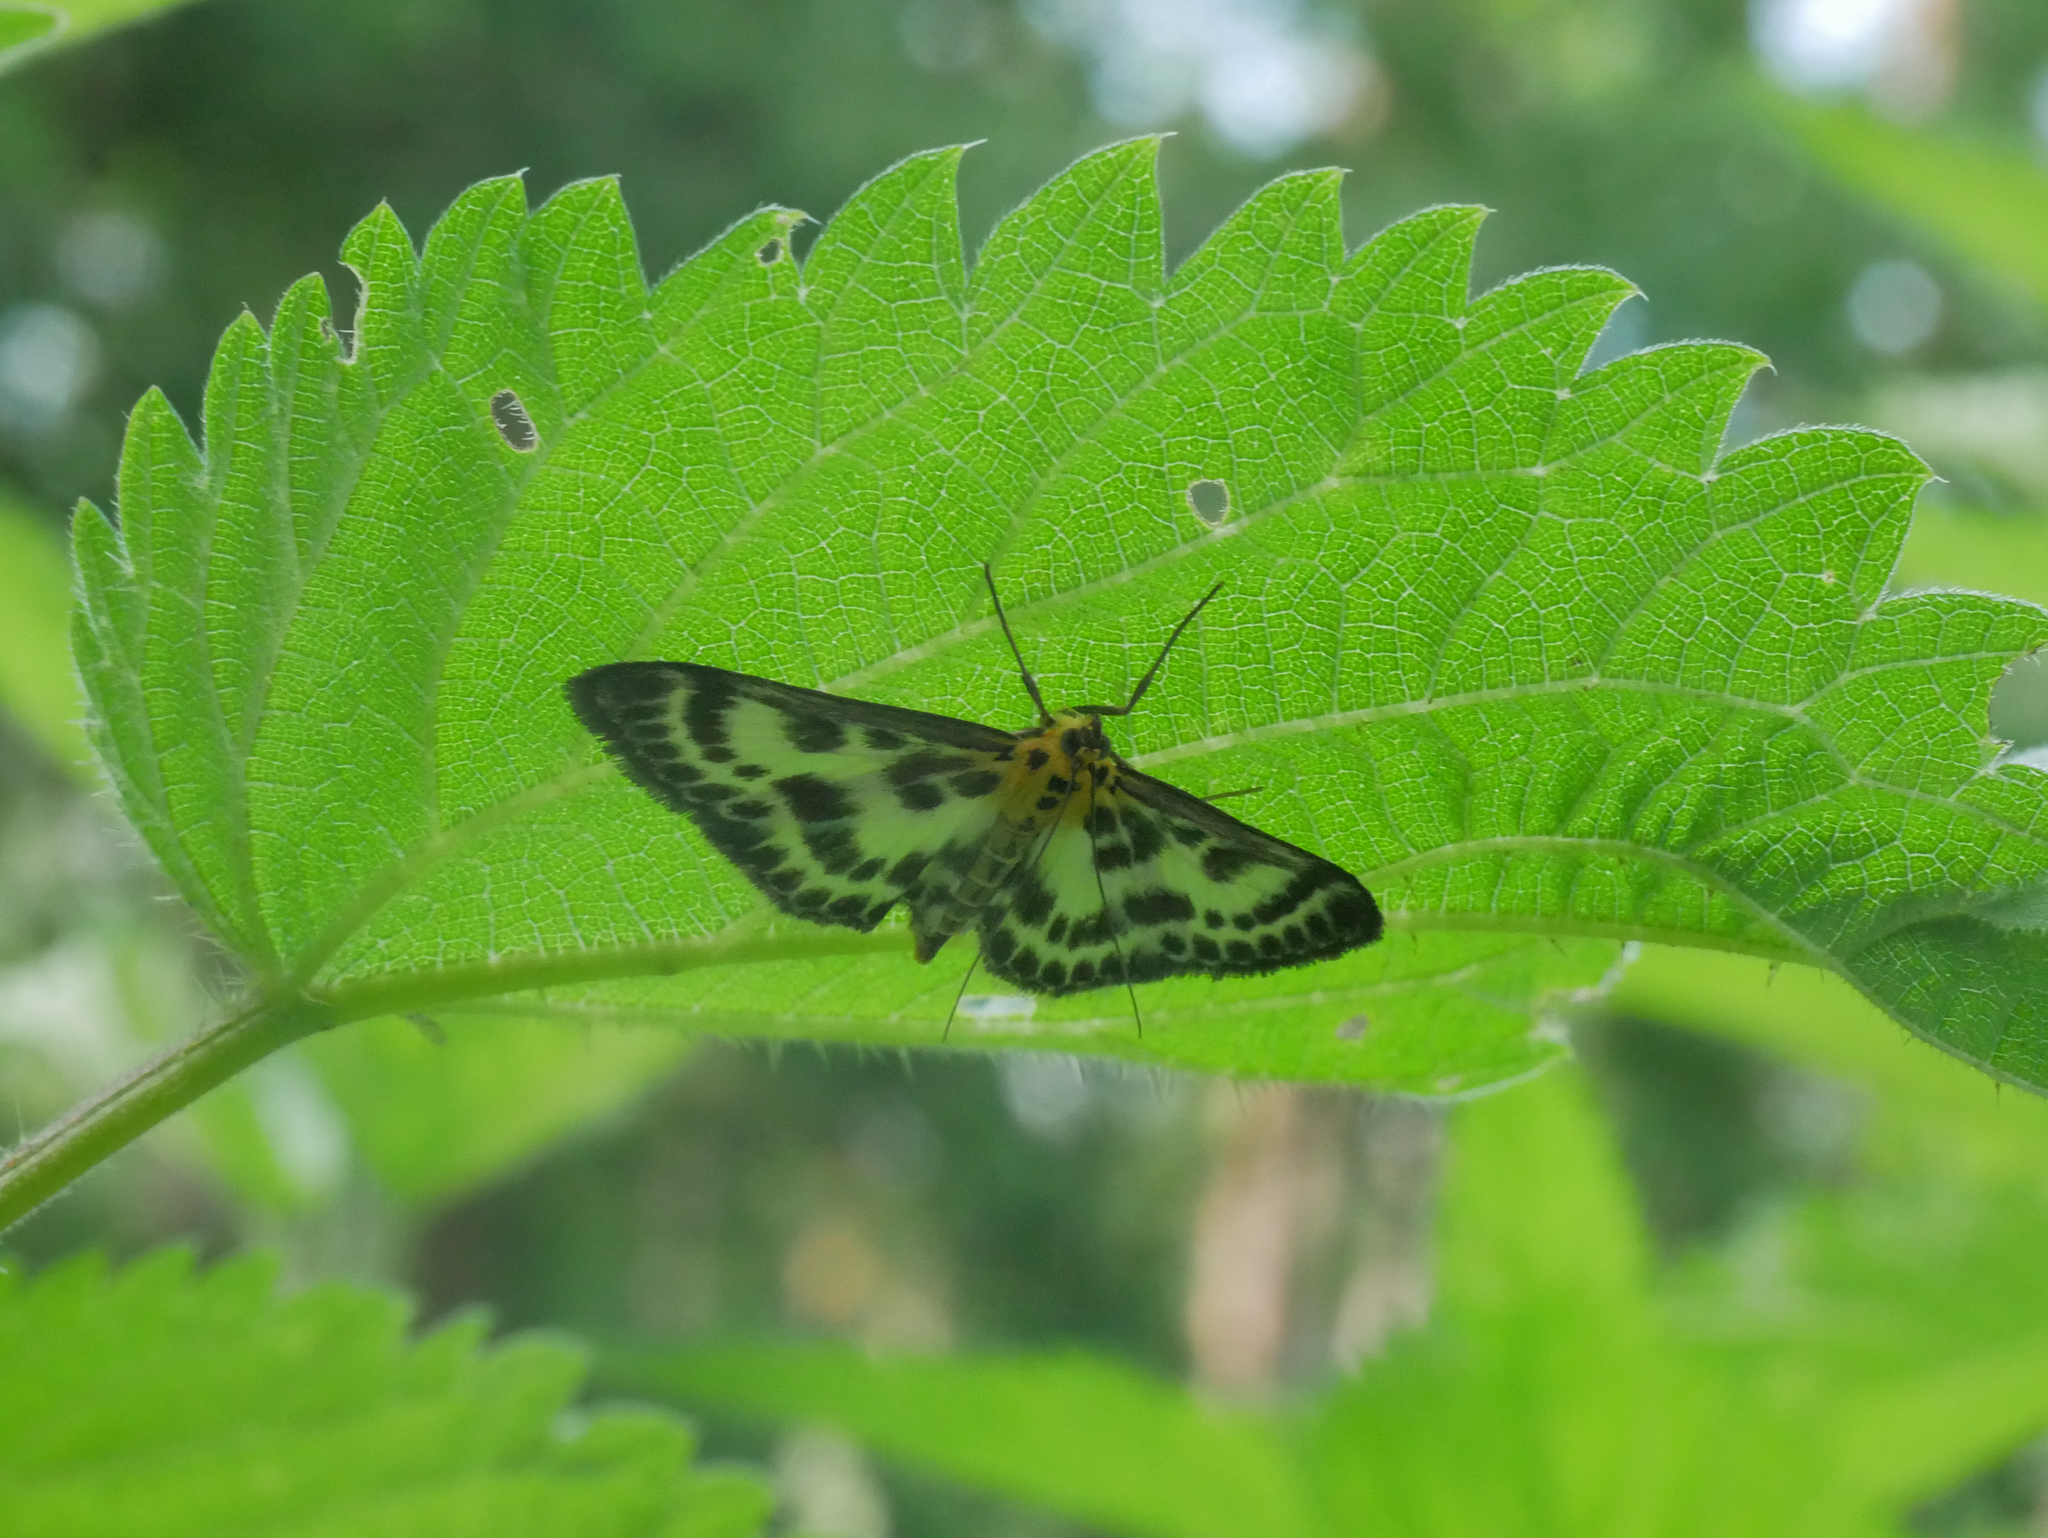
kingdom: Animalia
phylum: Arthropoda
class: Insecta
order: Lepidoptera
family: Crambidae
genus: Anania
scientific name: Anania hortulata
